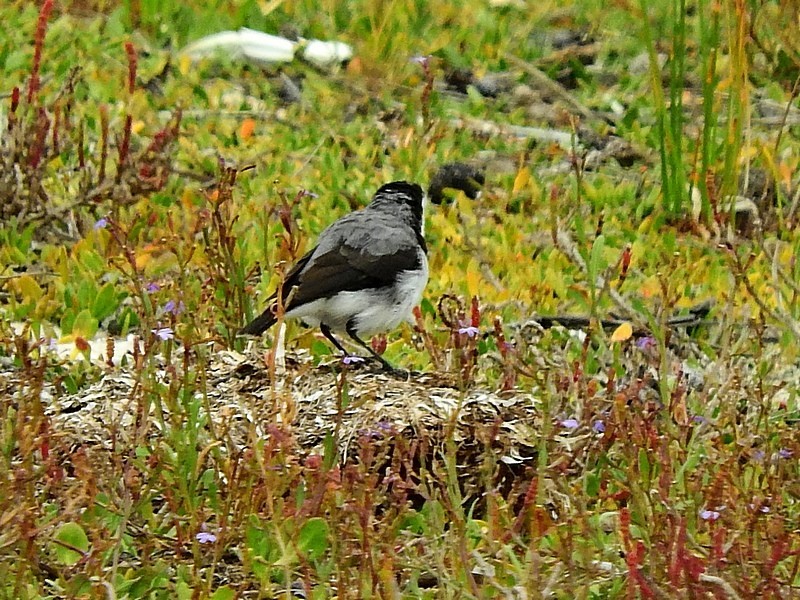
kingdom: Animalia
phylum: Chordata
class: Aves
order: Passeriformes
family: Meliphagidae
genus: Epthianura
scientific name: Epthianura albifrons
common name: White-fronted chat
